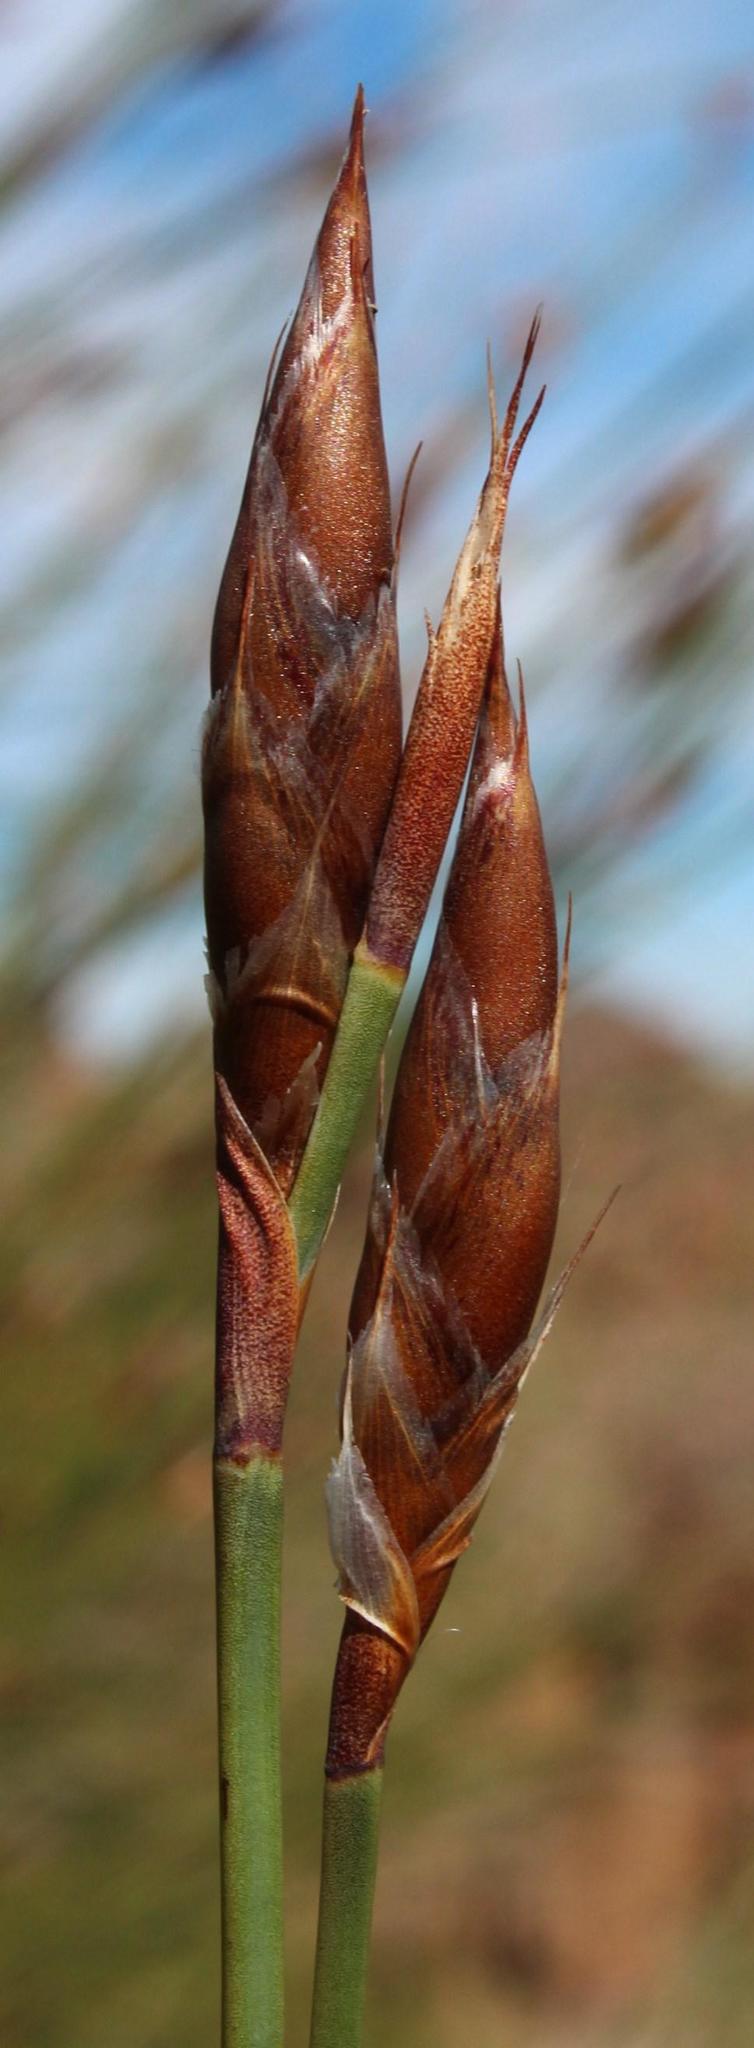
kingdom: Plantae
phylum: Tracheophyta
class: Liliopsida
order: Poales
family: Restionaceae
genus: Cannomois
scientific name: Cannomois robusta
